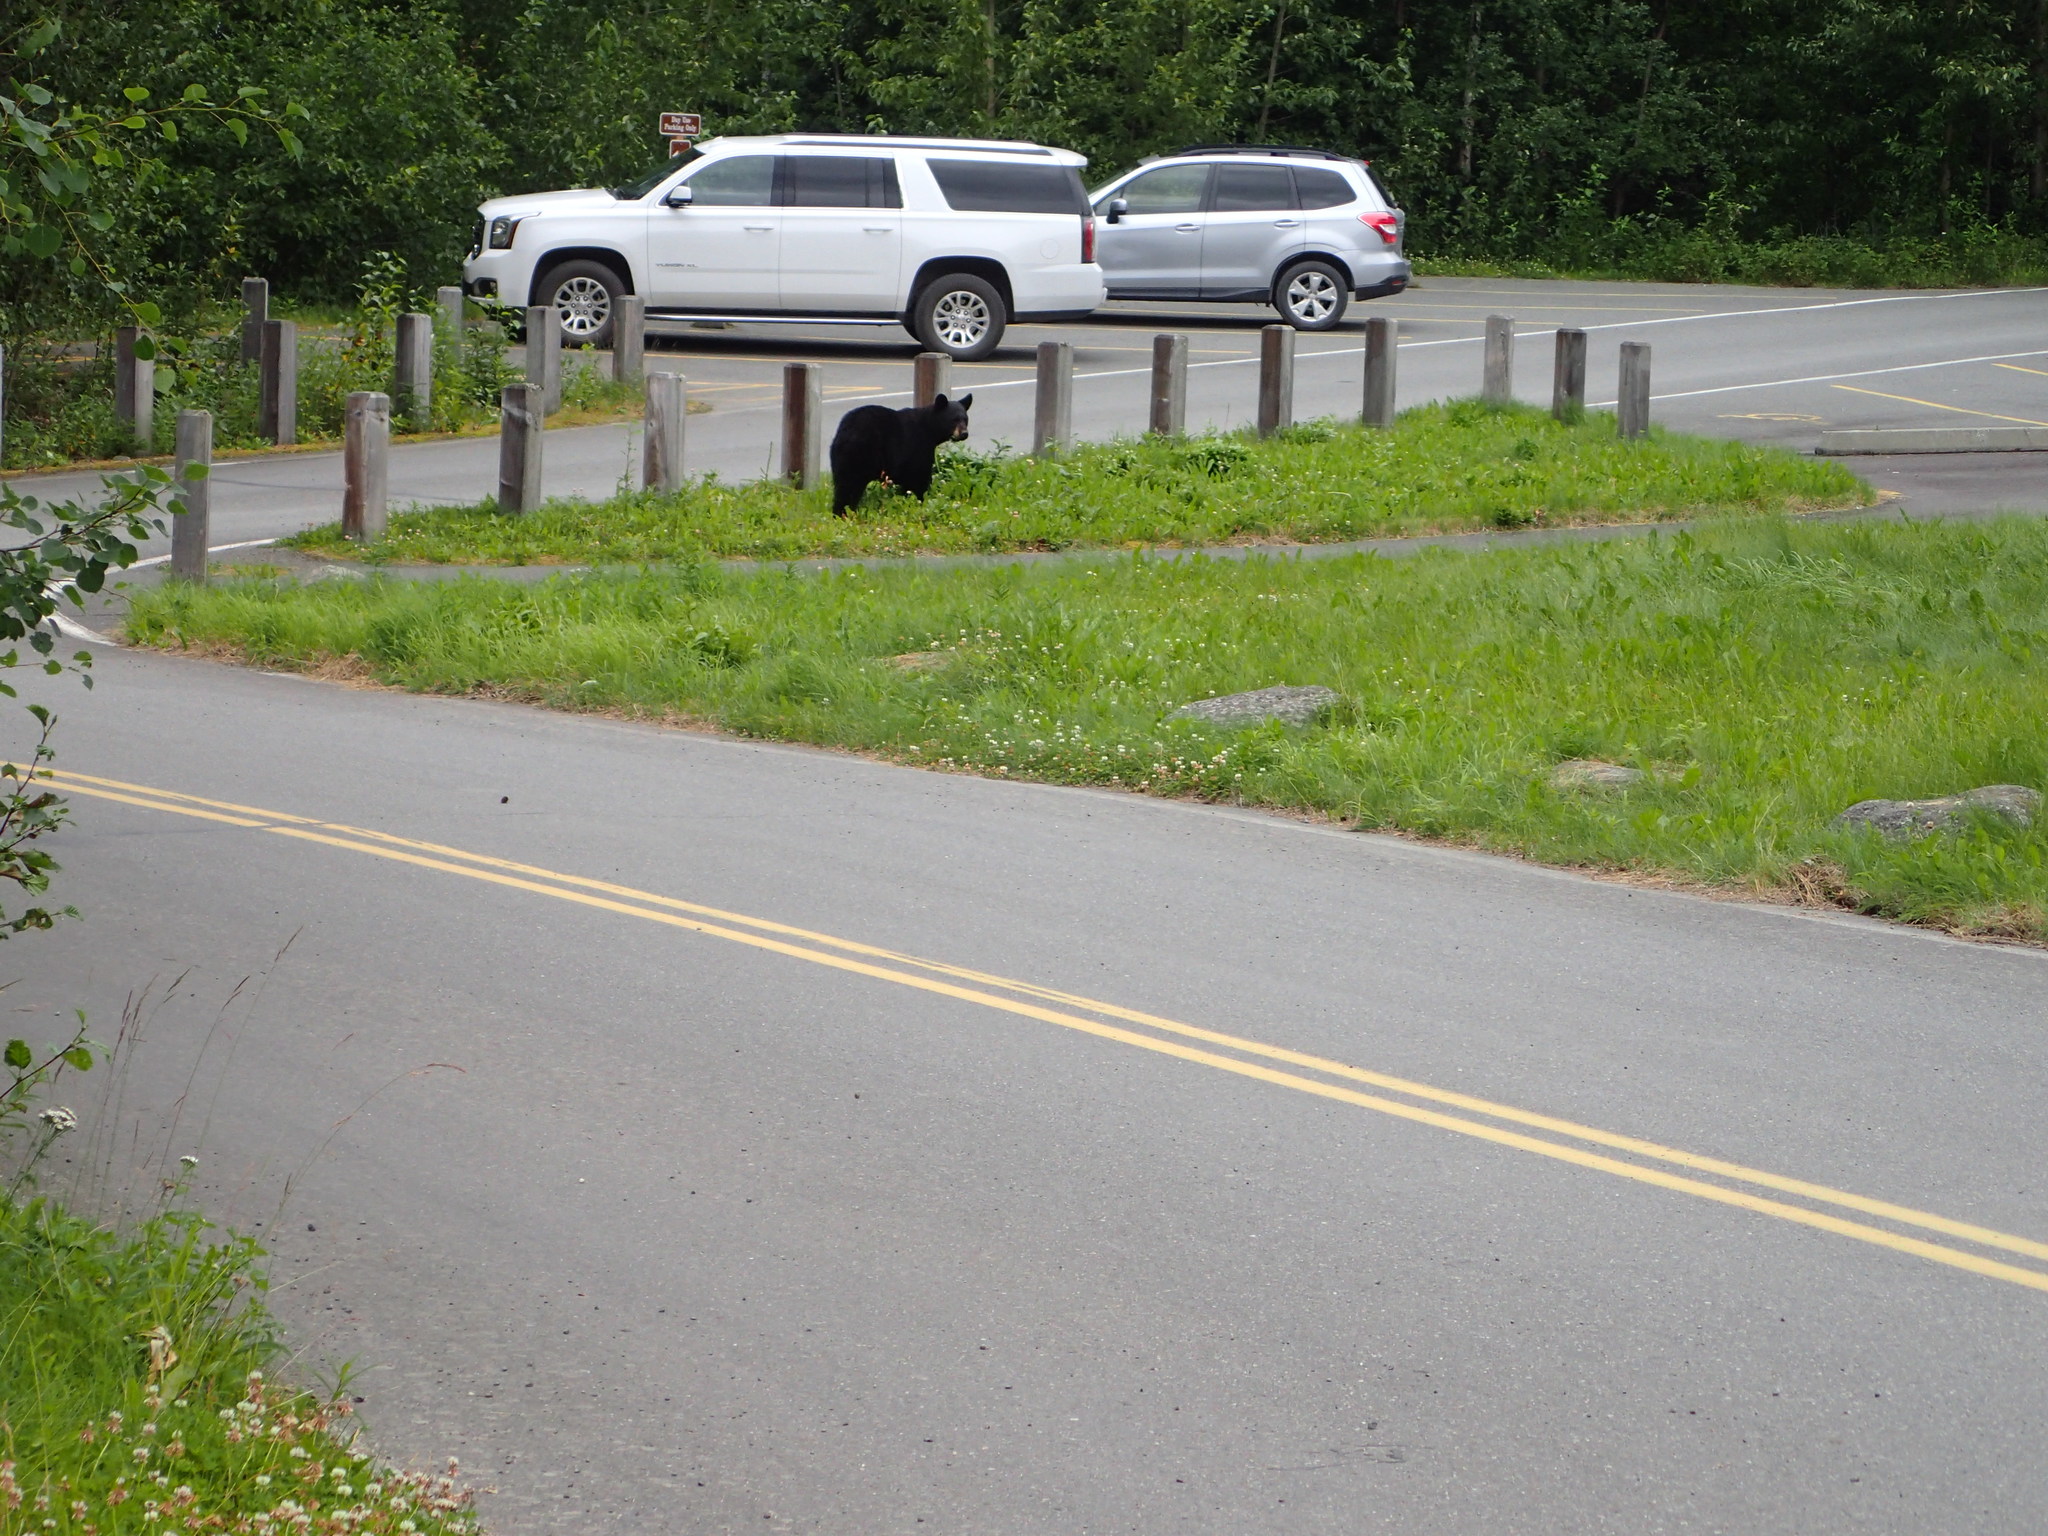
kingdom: Animalia
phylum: Chordata
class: Mammalia
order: Carnivora
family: Ursidae
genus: Ursus
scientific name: Ursus americanus
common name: American black bear
